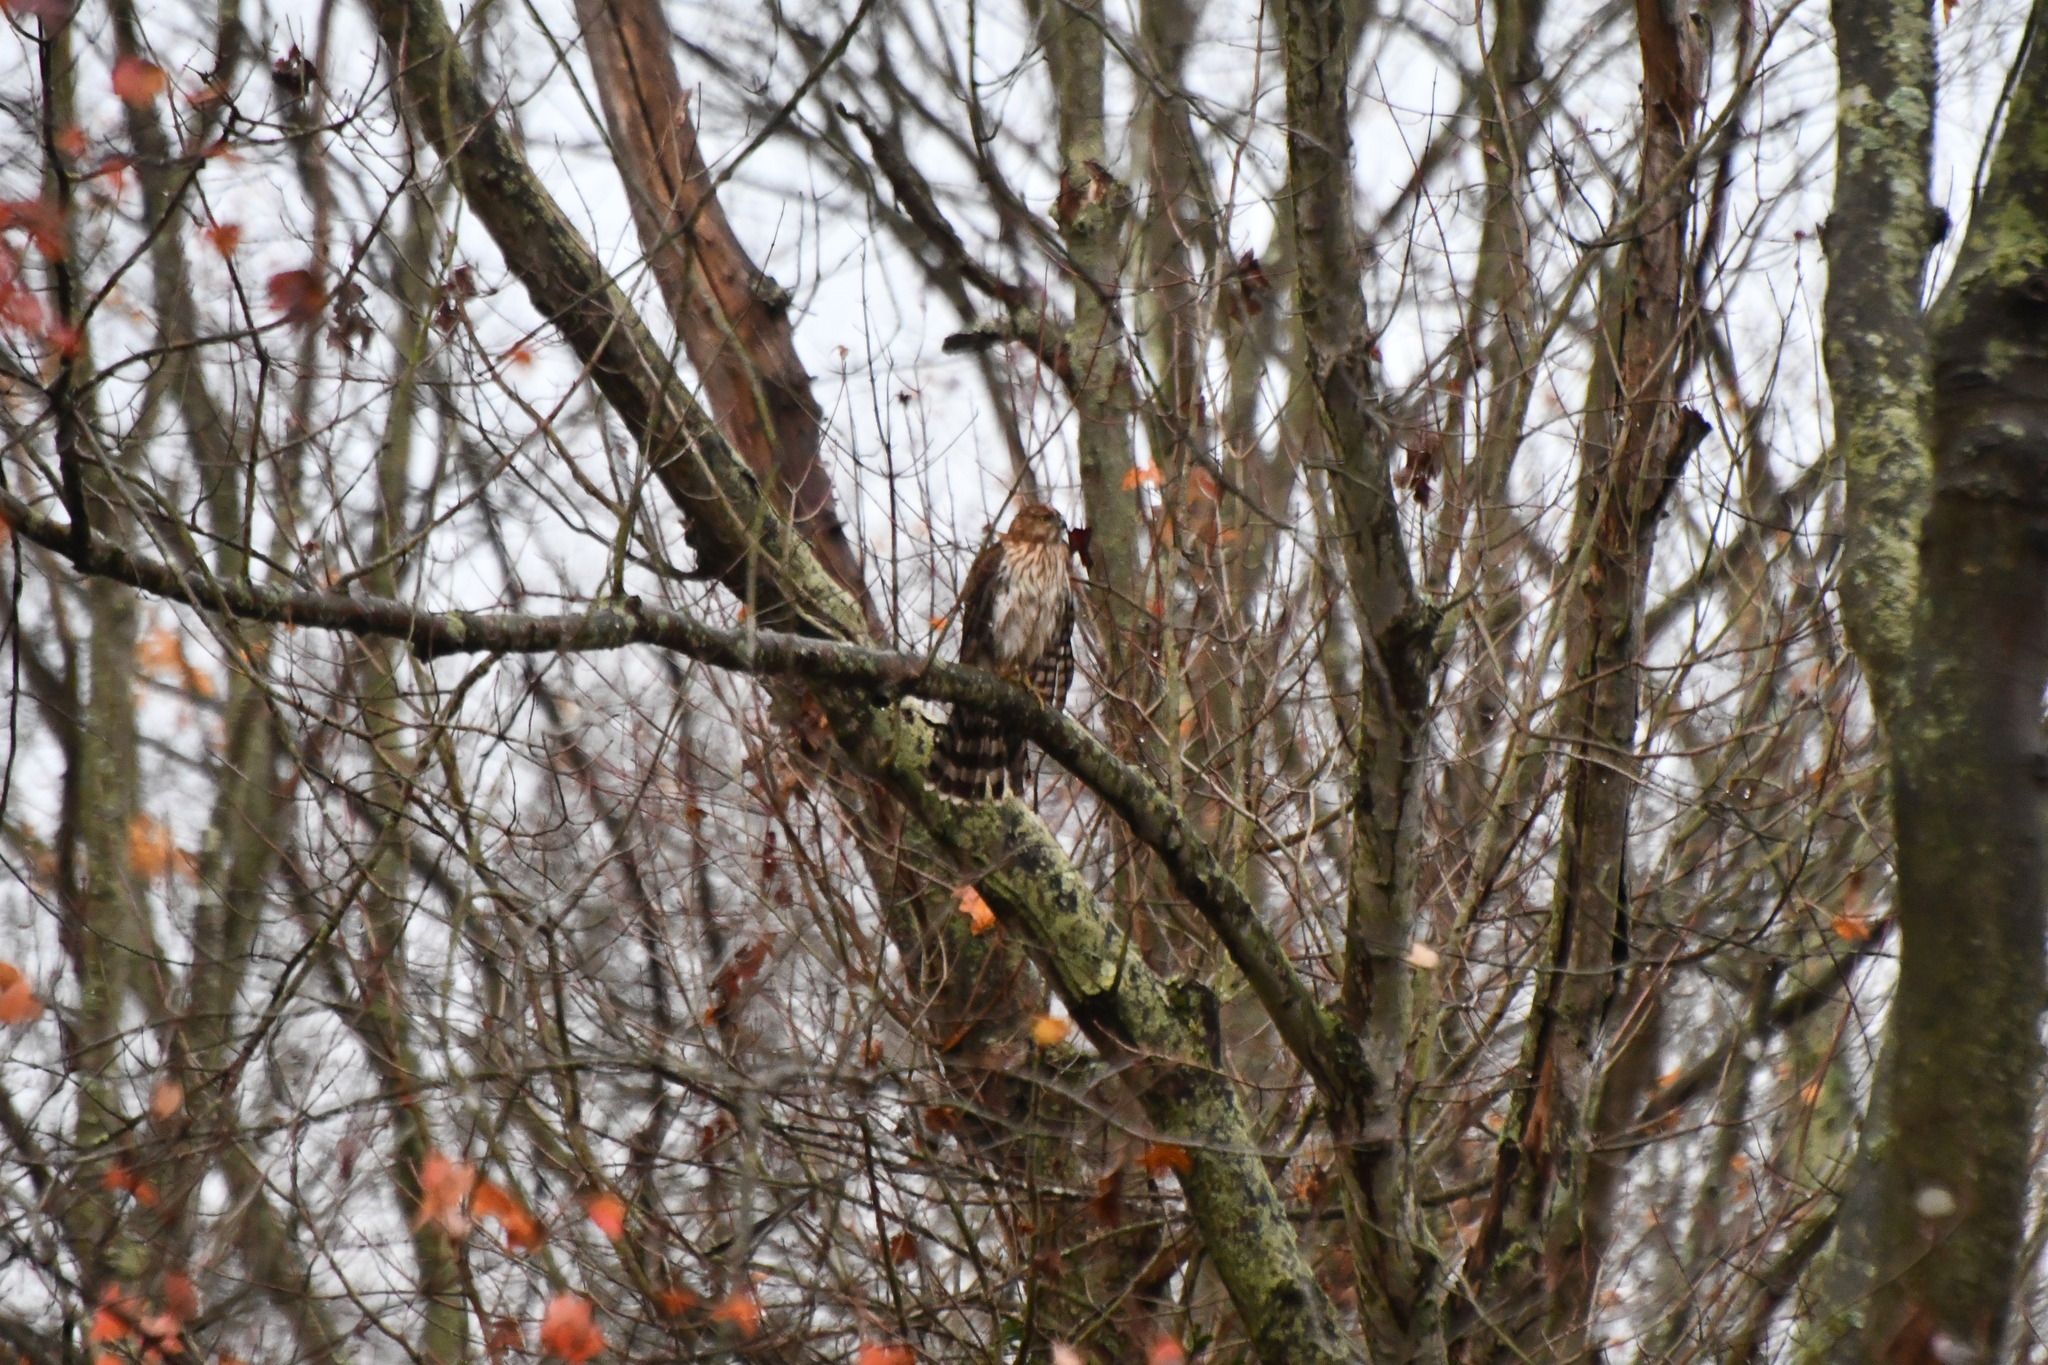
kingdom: Animalia
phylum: Chordata
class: Aves
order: Accipitriformes
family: Accipitridae
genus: Accipiter
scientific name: Accipiter cooperii
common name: Cooper's hawk
